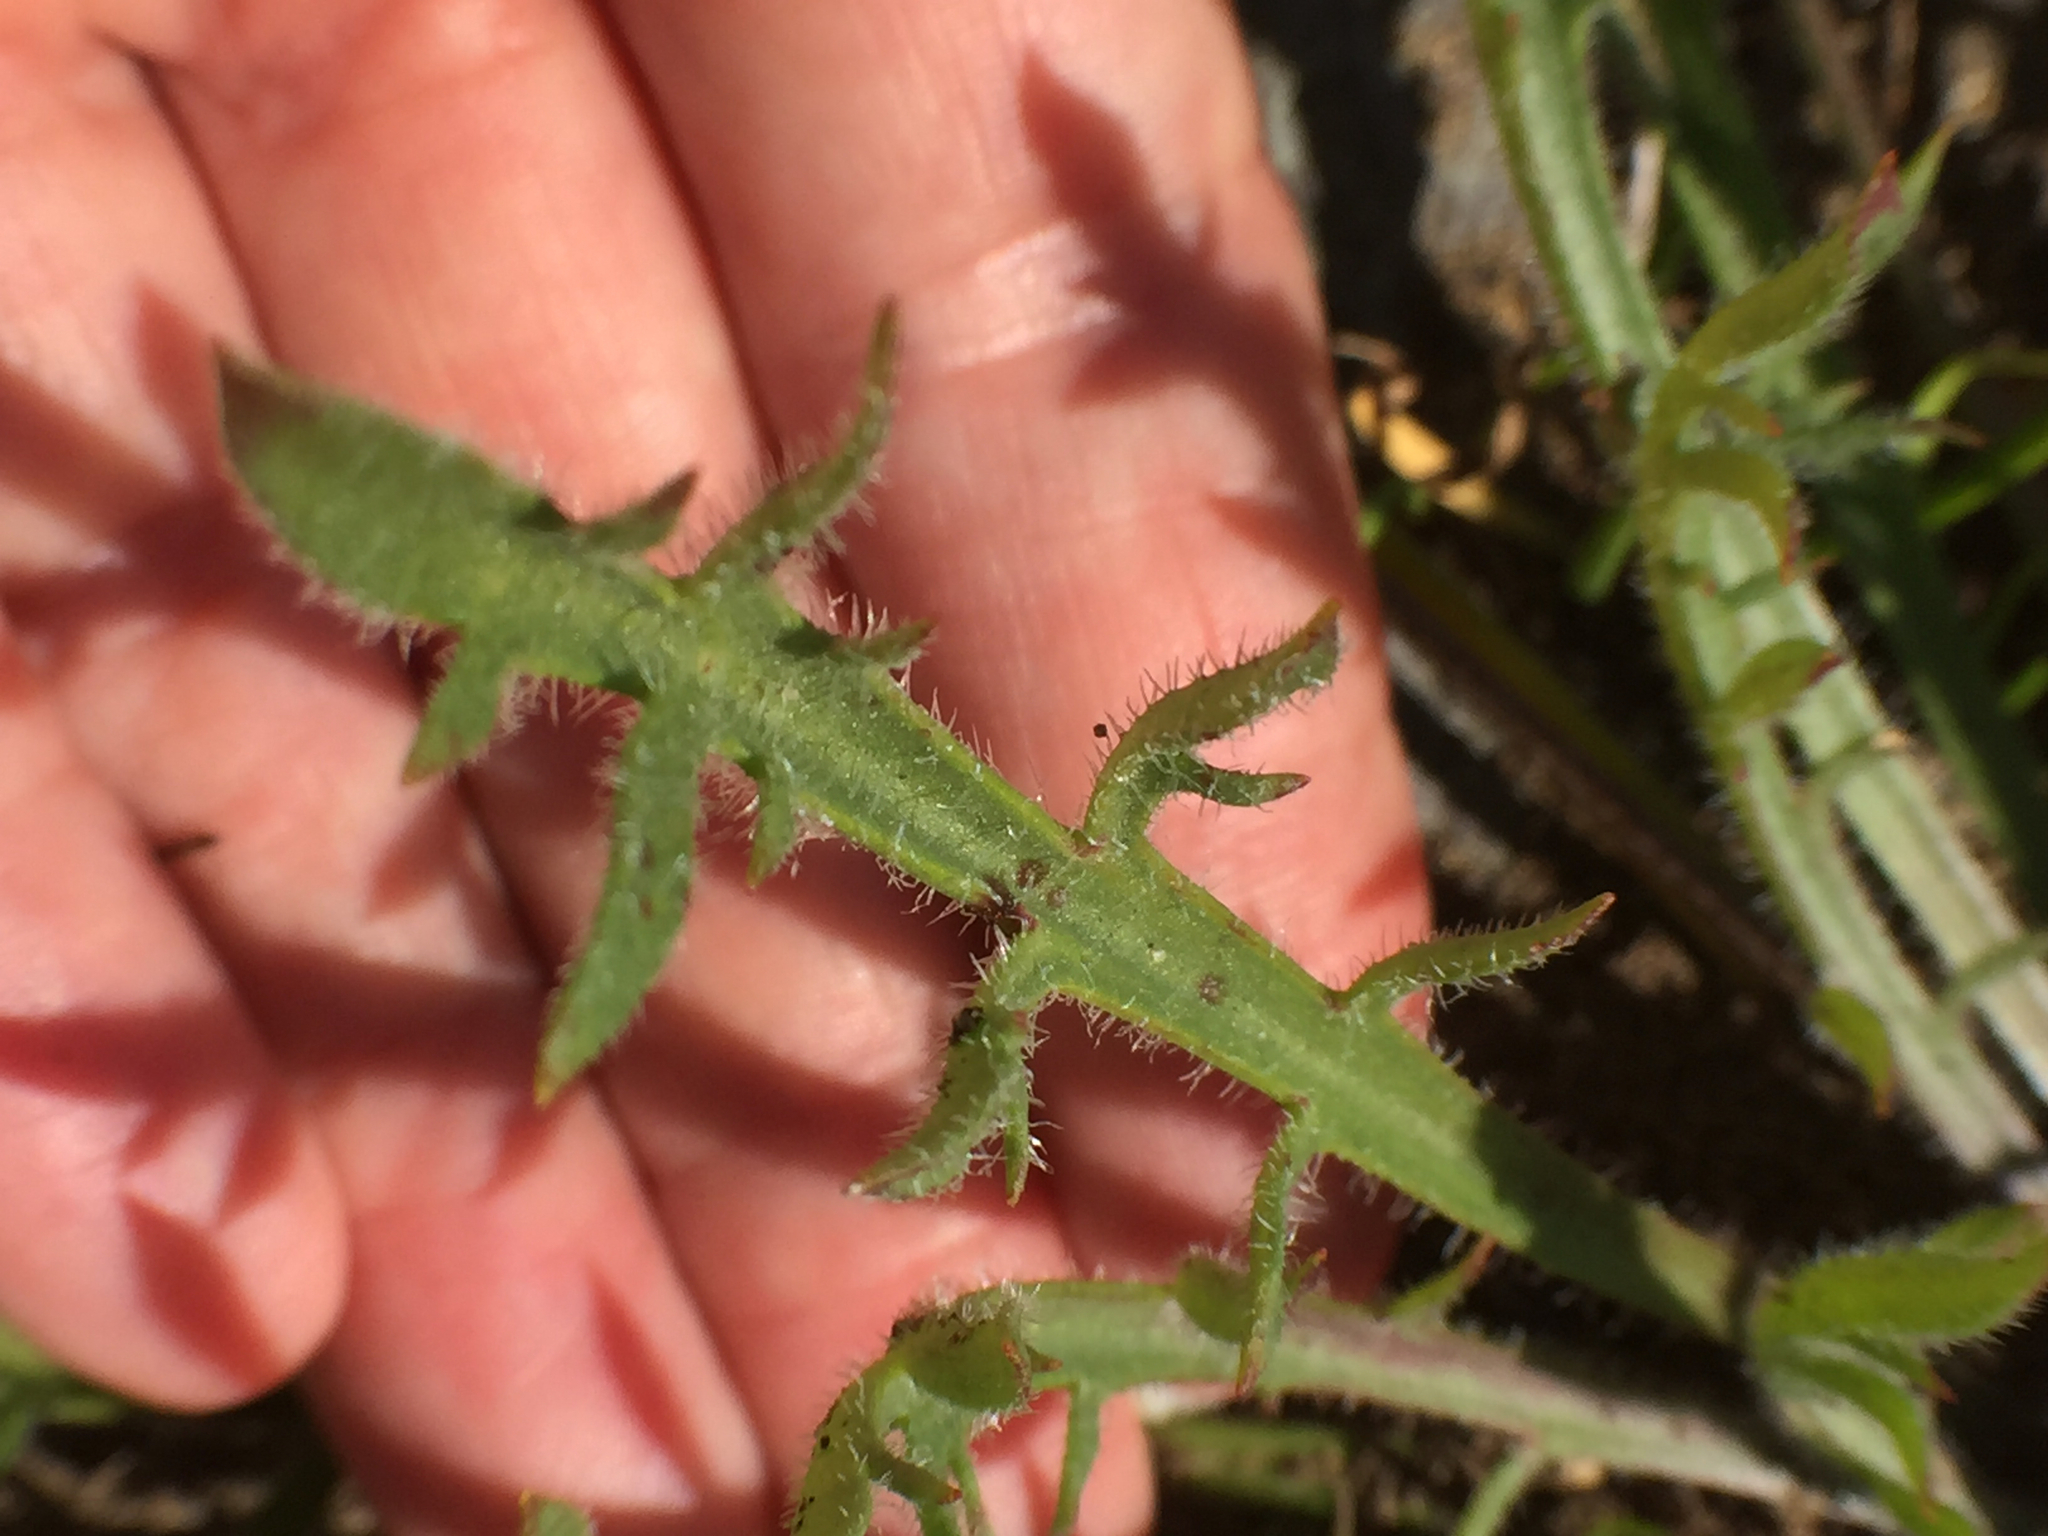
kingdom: Plantae
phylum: Tracheophyta
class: Magnoliopsida
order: Lamiales
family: Plantaginaceae
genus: Plantago
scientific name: Plantago coronopus
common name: Buck's-horn plantain
